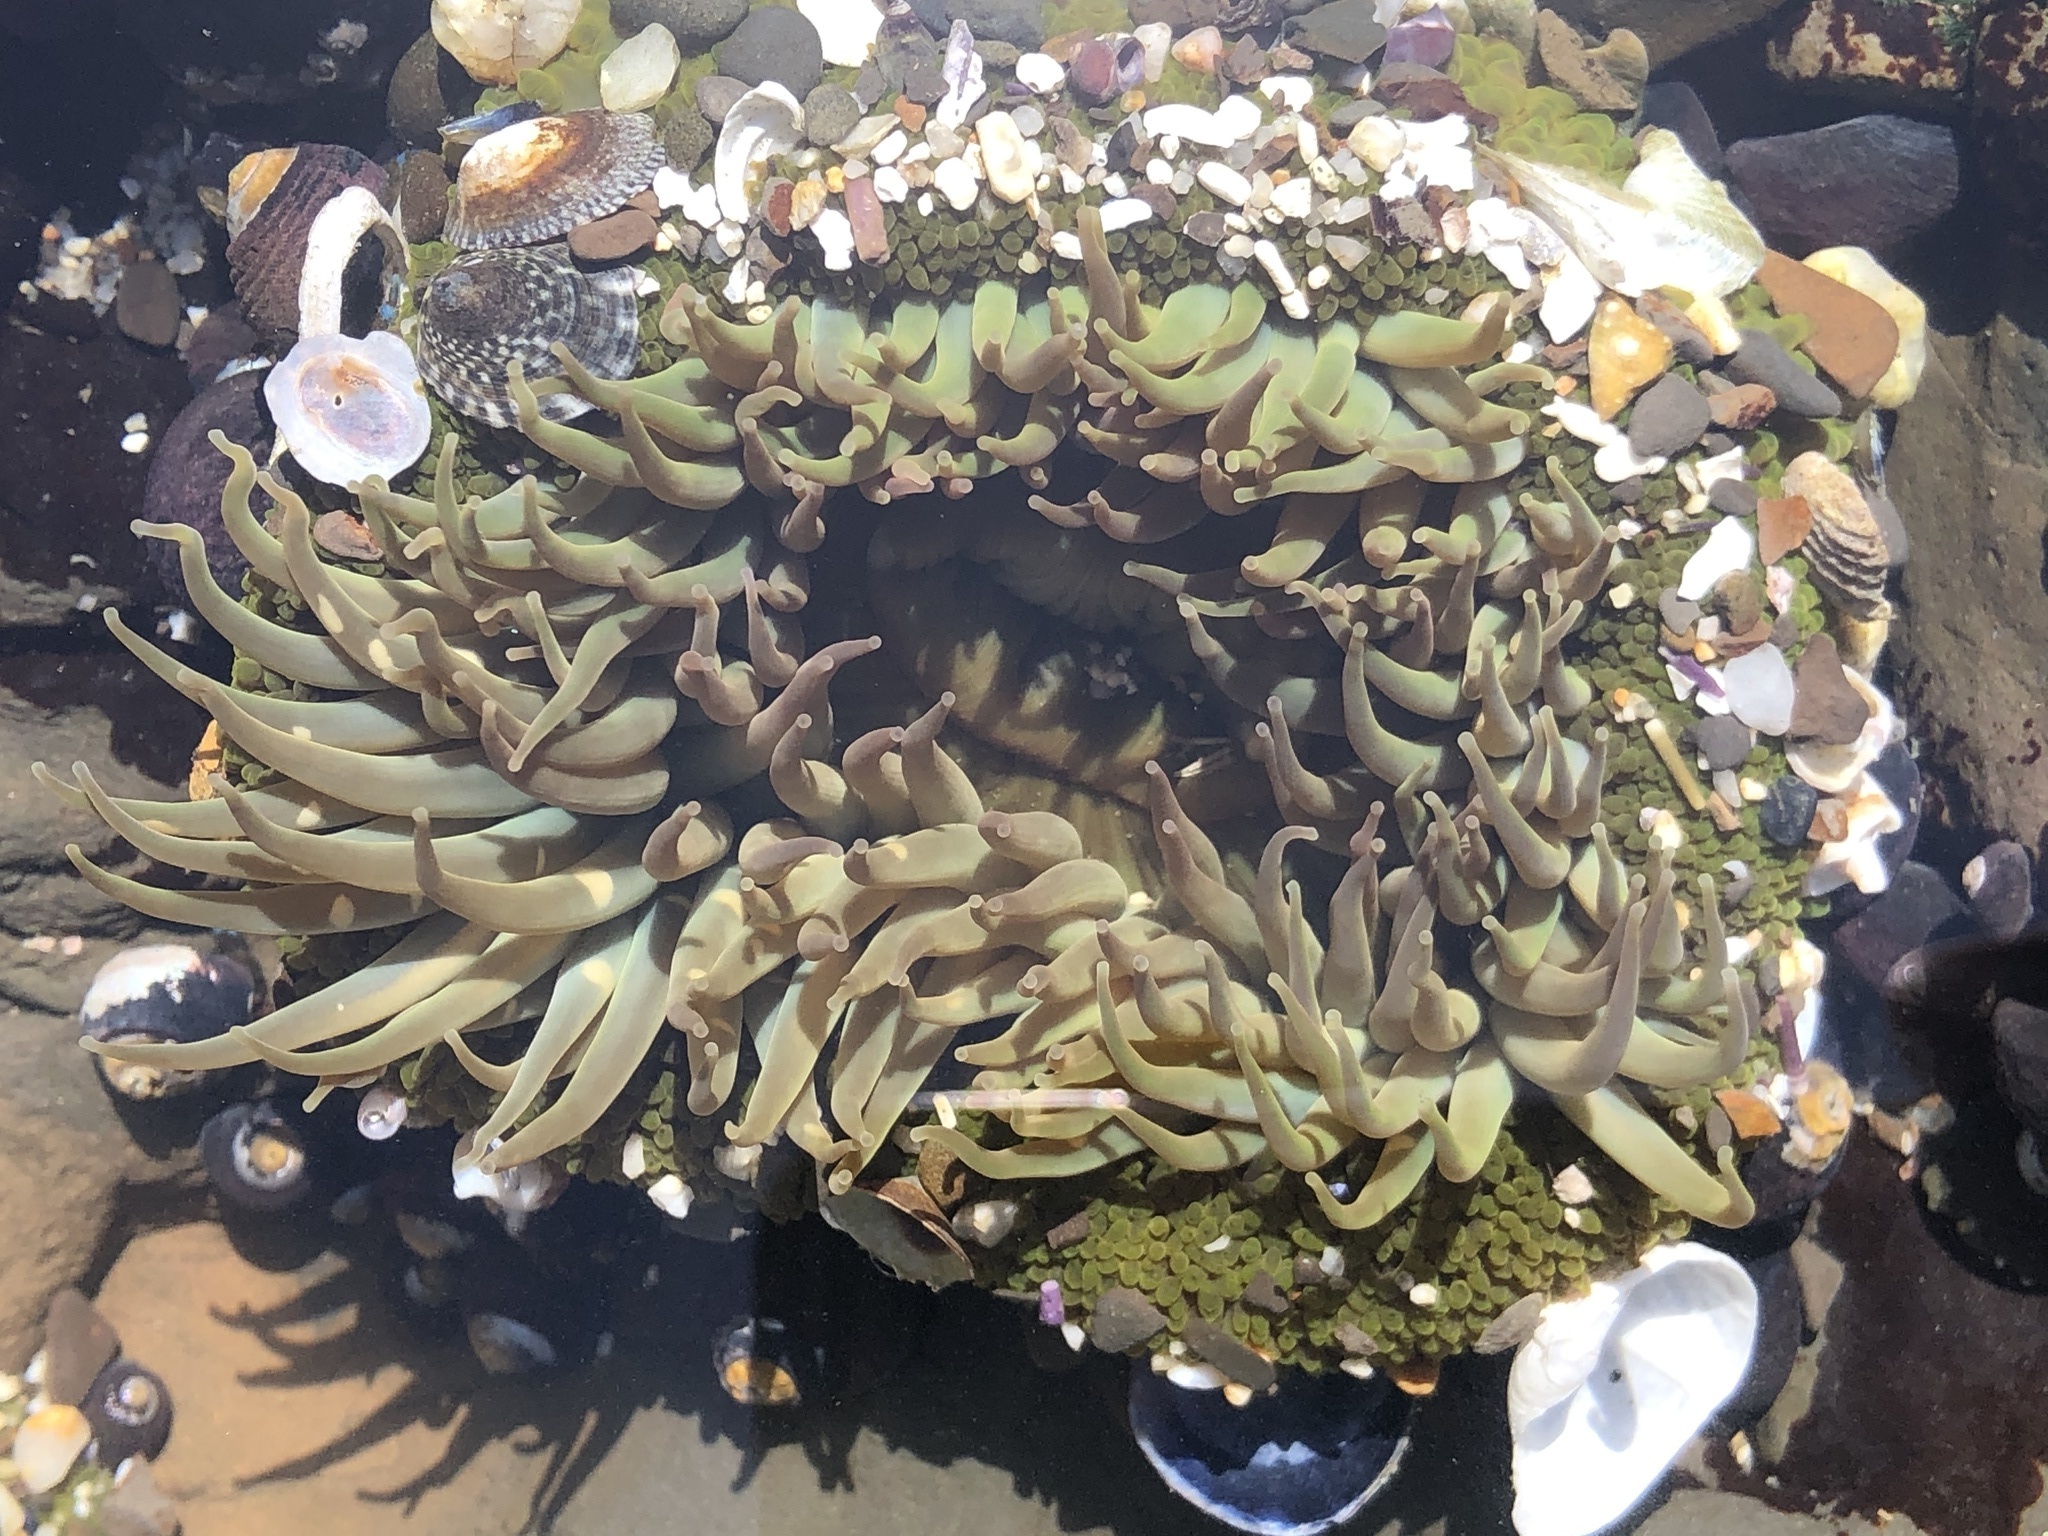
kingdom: Animalia
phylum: Cnidaria
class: Anthozoa
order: Actiniaria
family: Actiniidae
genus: Anthopleura
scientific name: Anthopleura elegantissima
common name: Clonal anemone
